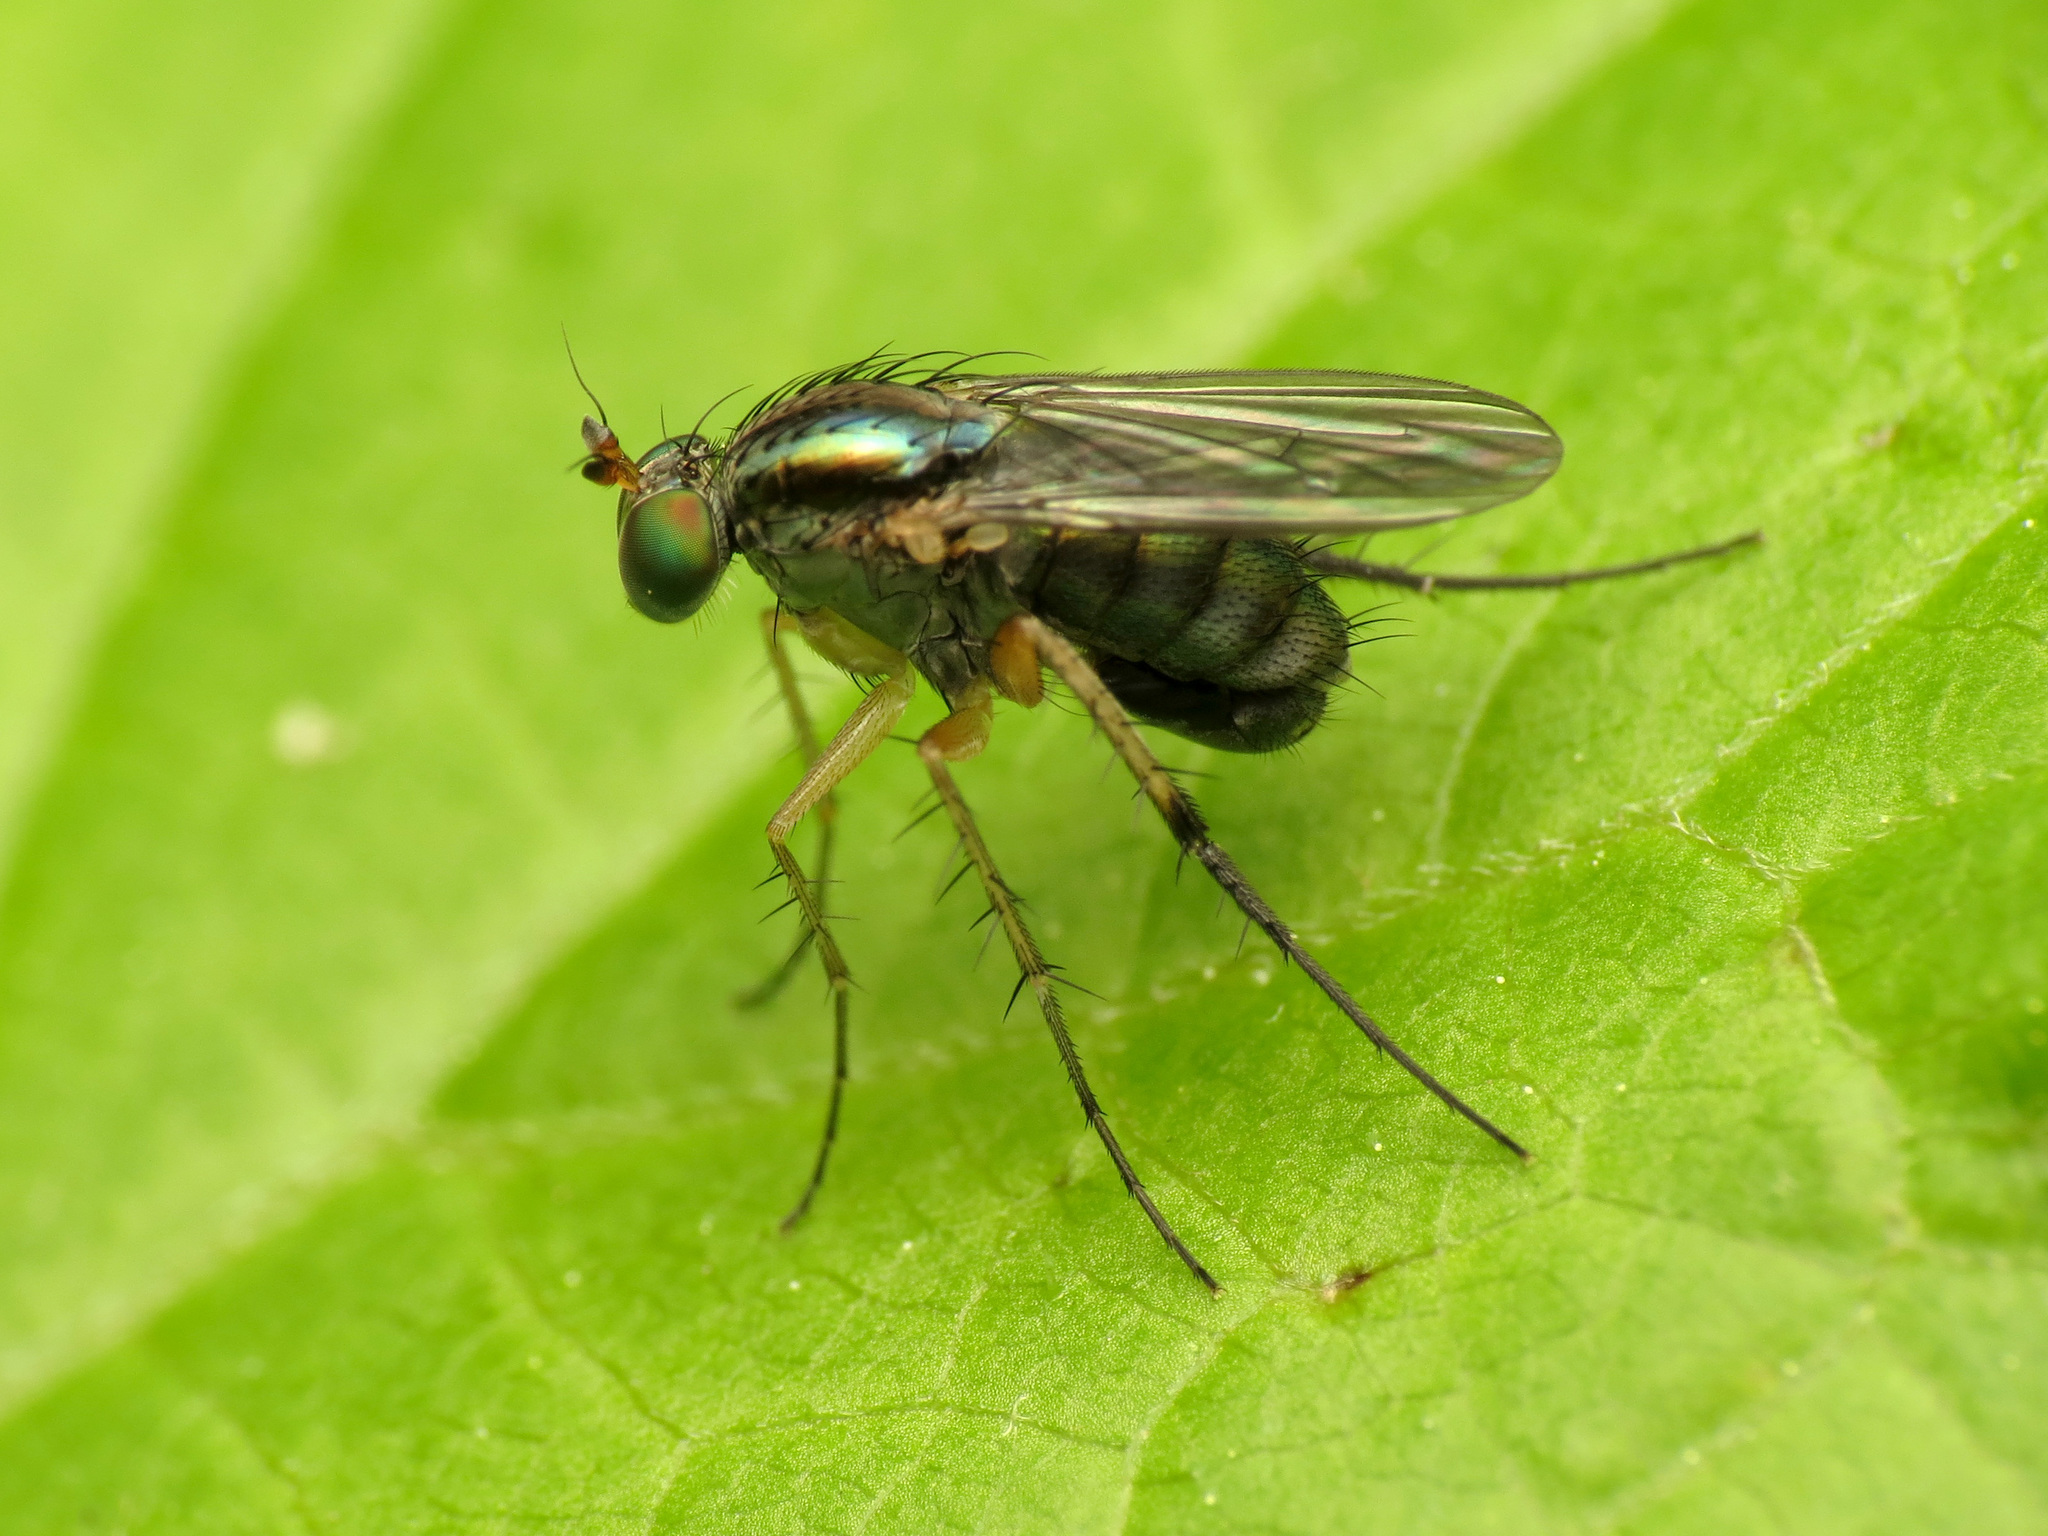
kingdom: Animalia
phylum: Arthropoda
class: Insecta
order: Diptera
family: Dolichopodidae
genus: Dolichopus
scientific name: Dolichopus reflectus
